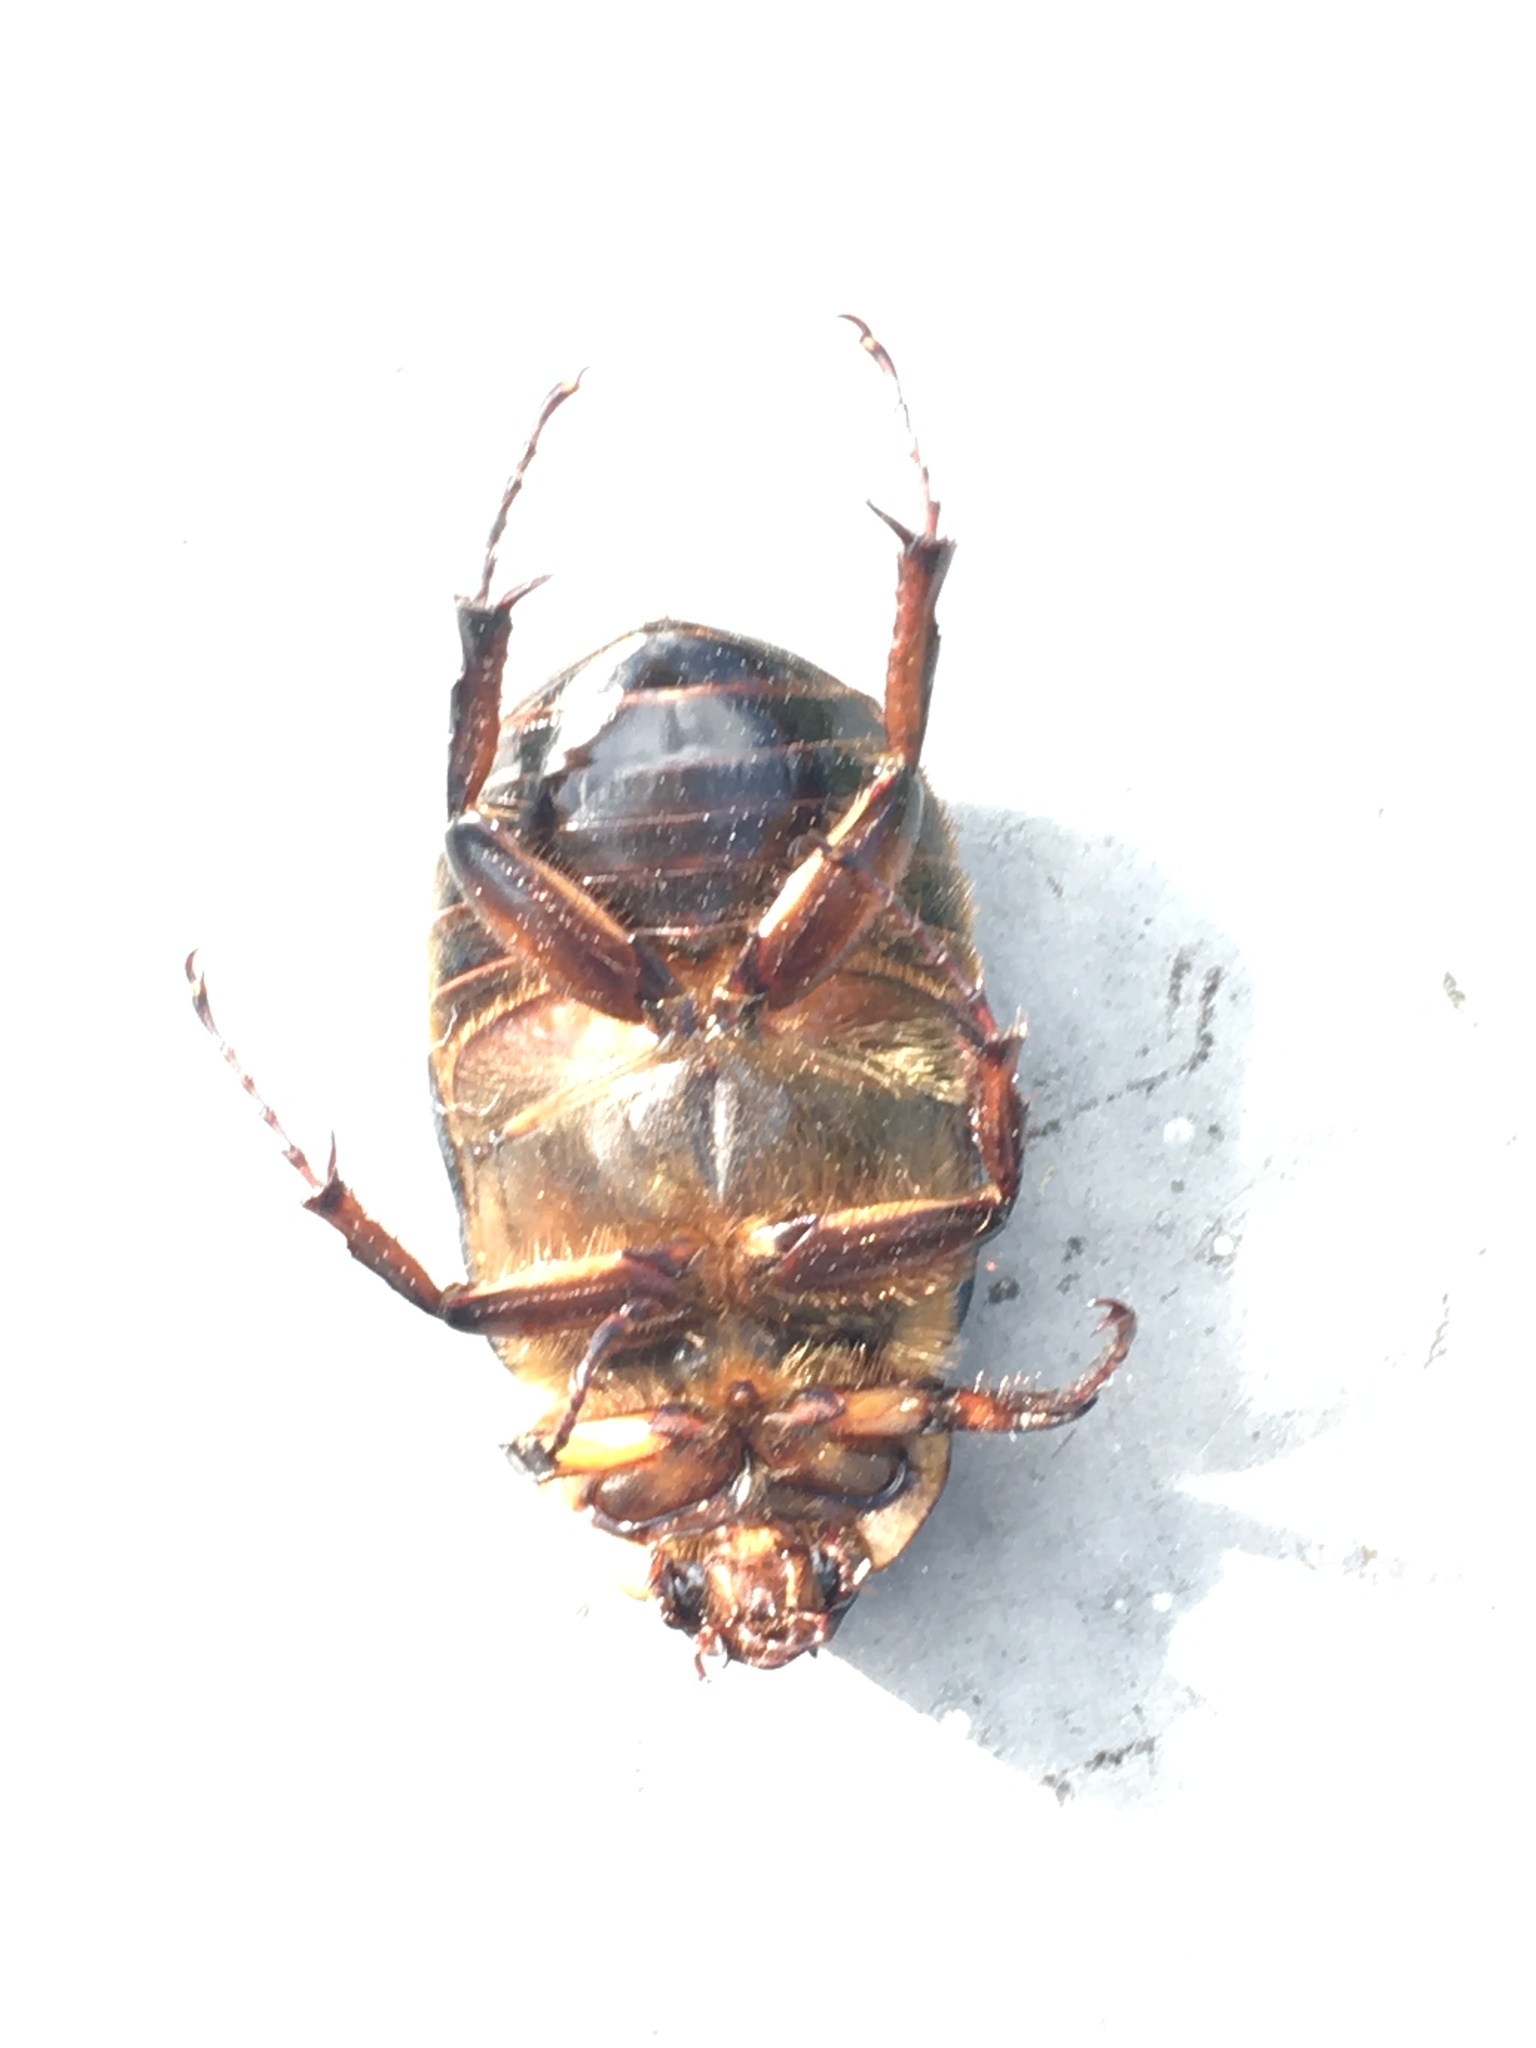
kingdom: Animalia
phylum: Arthropoda
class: Insecta
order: Coleoptera
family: Scarabaeidae
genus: Ancognatha
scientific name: Ancognatha ustulata
